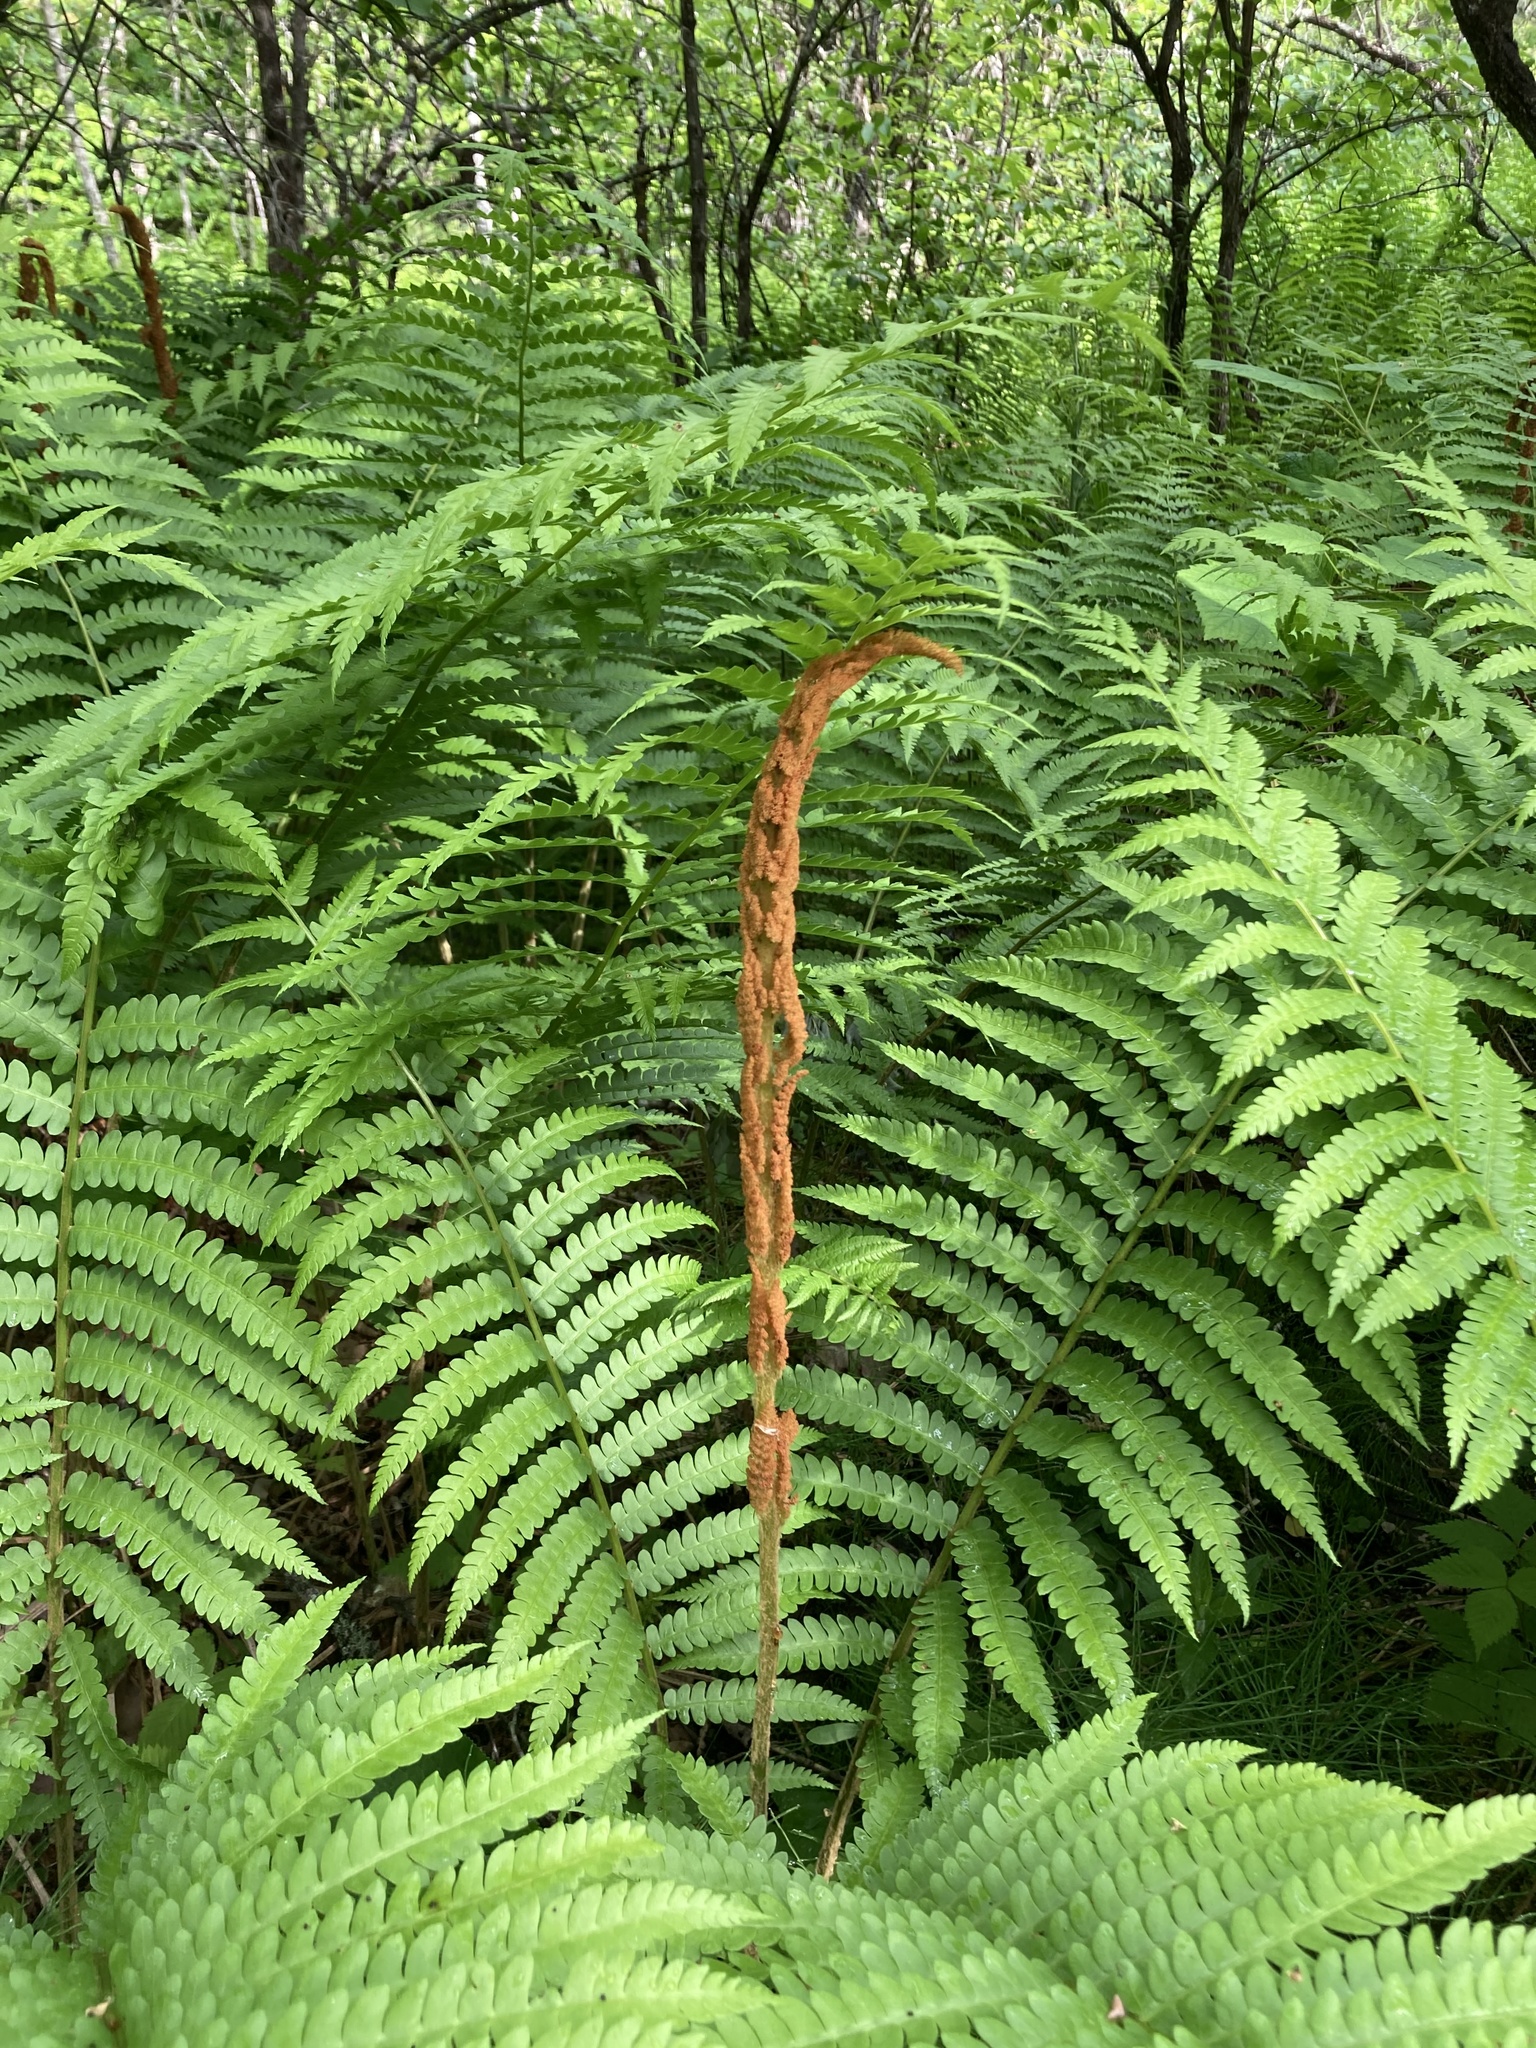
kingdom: Plantae
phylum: Tracheophyta
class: Polypodiopsida
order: Osmundales
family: Osmundaceae
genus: Osmundastrum
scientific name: Osmundastrum cinnamomeum
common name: Cinnamon fern
